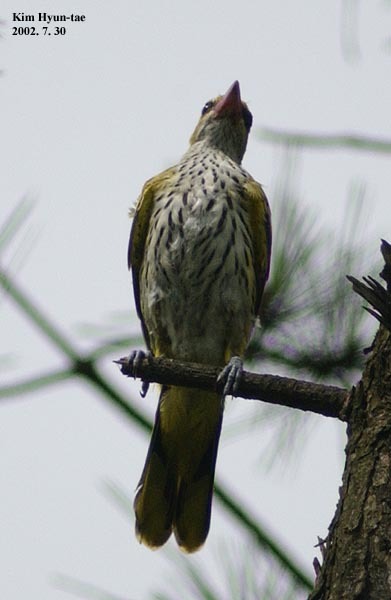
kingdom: Animalia
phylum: Chordata
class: Aves
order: Passeriformes
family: Oriolidae
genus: Oriolus
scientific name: Oriolus chinensis
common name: Black-naped oriole
